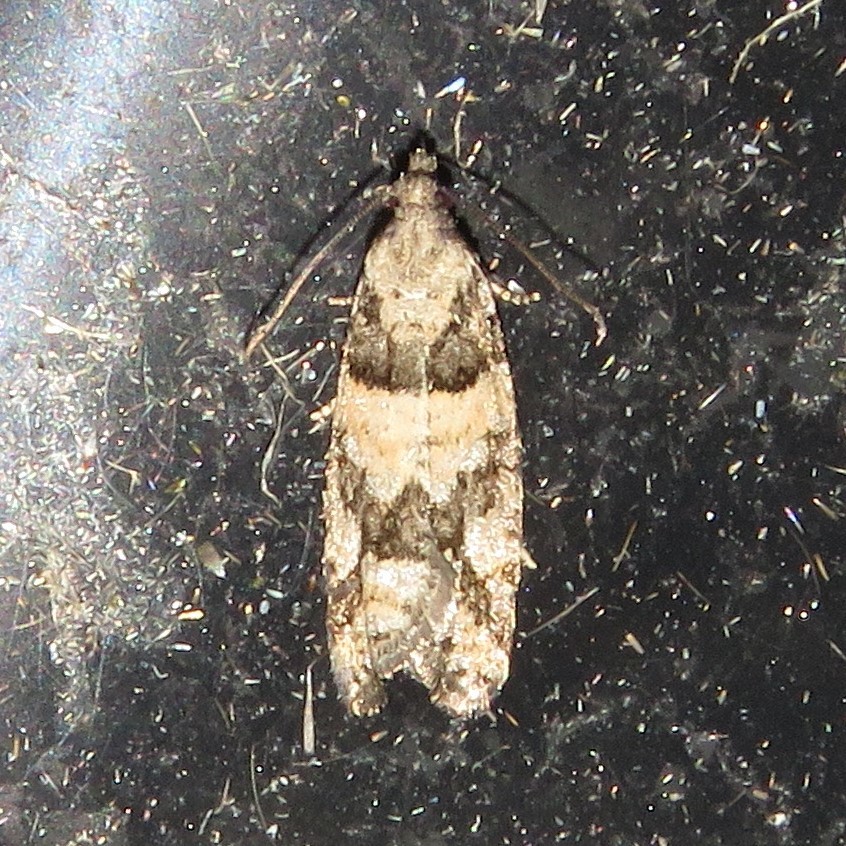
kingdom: Animalia
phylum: Arthropoda
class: Insecta
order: Lepidoptera
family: Tortricidae
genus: Epinotia
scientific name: Epinotia radicana
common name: Red-striped needleworm moth
